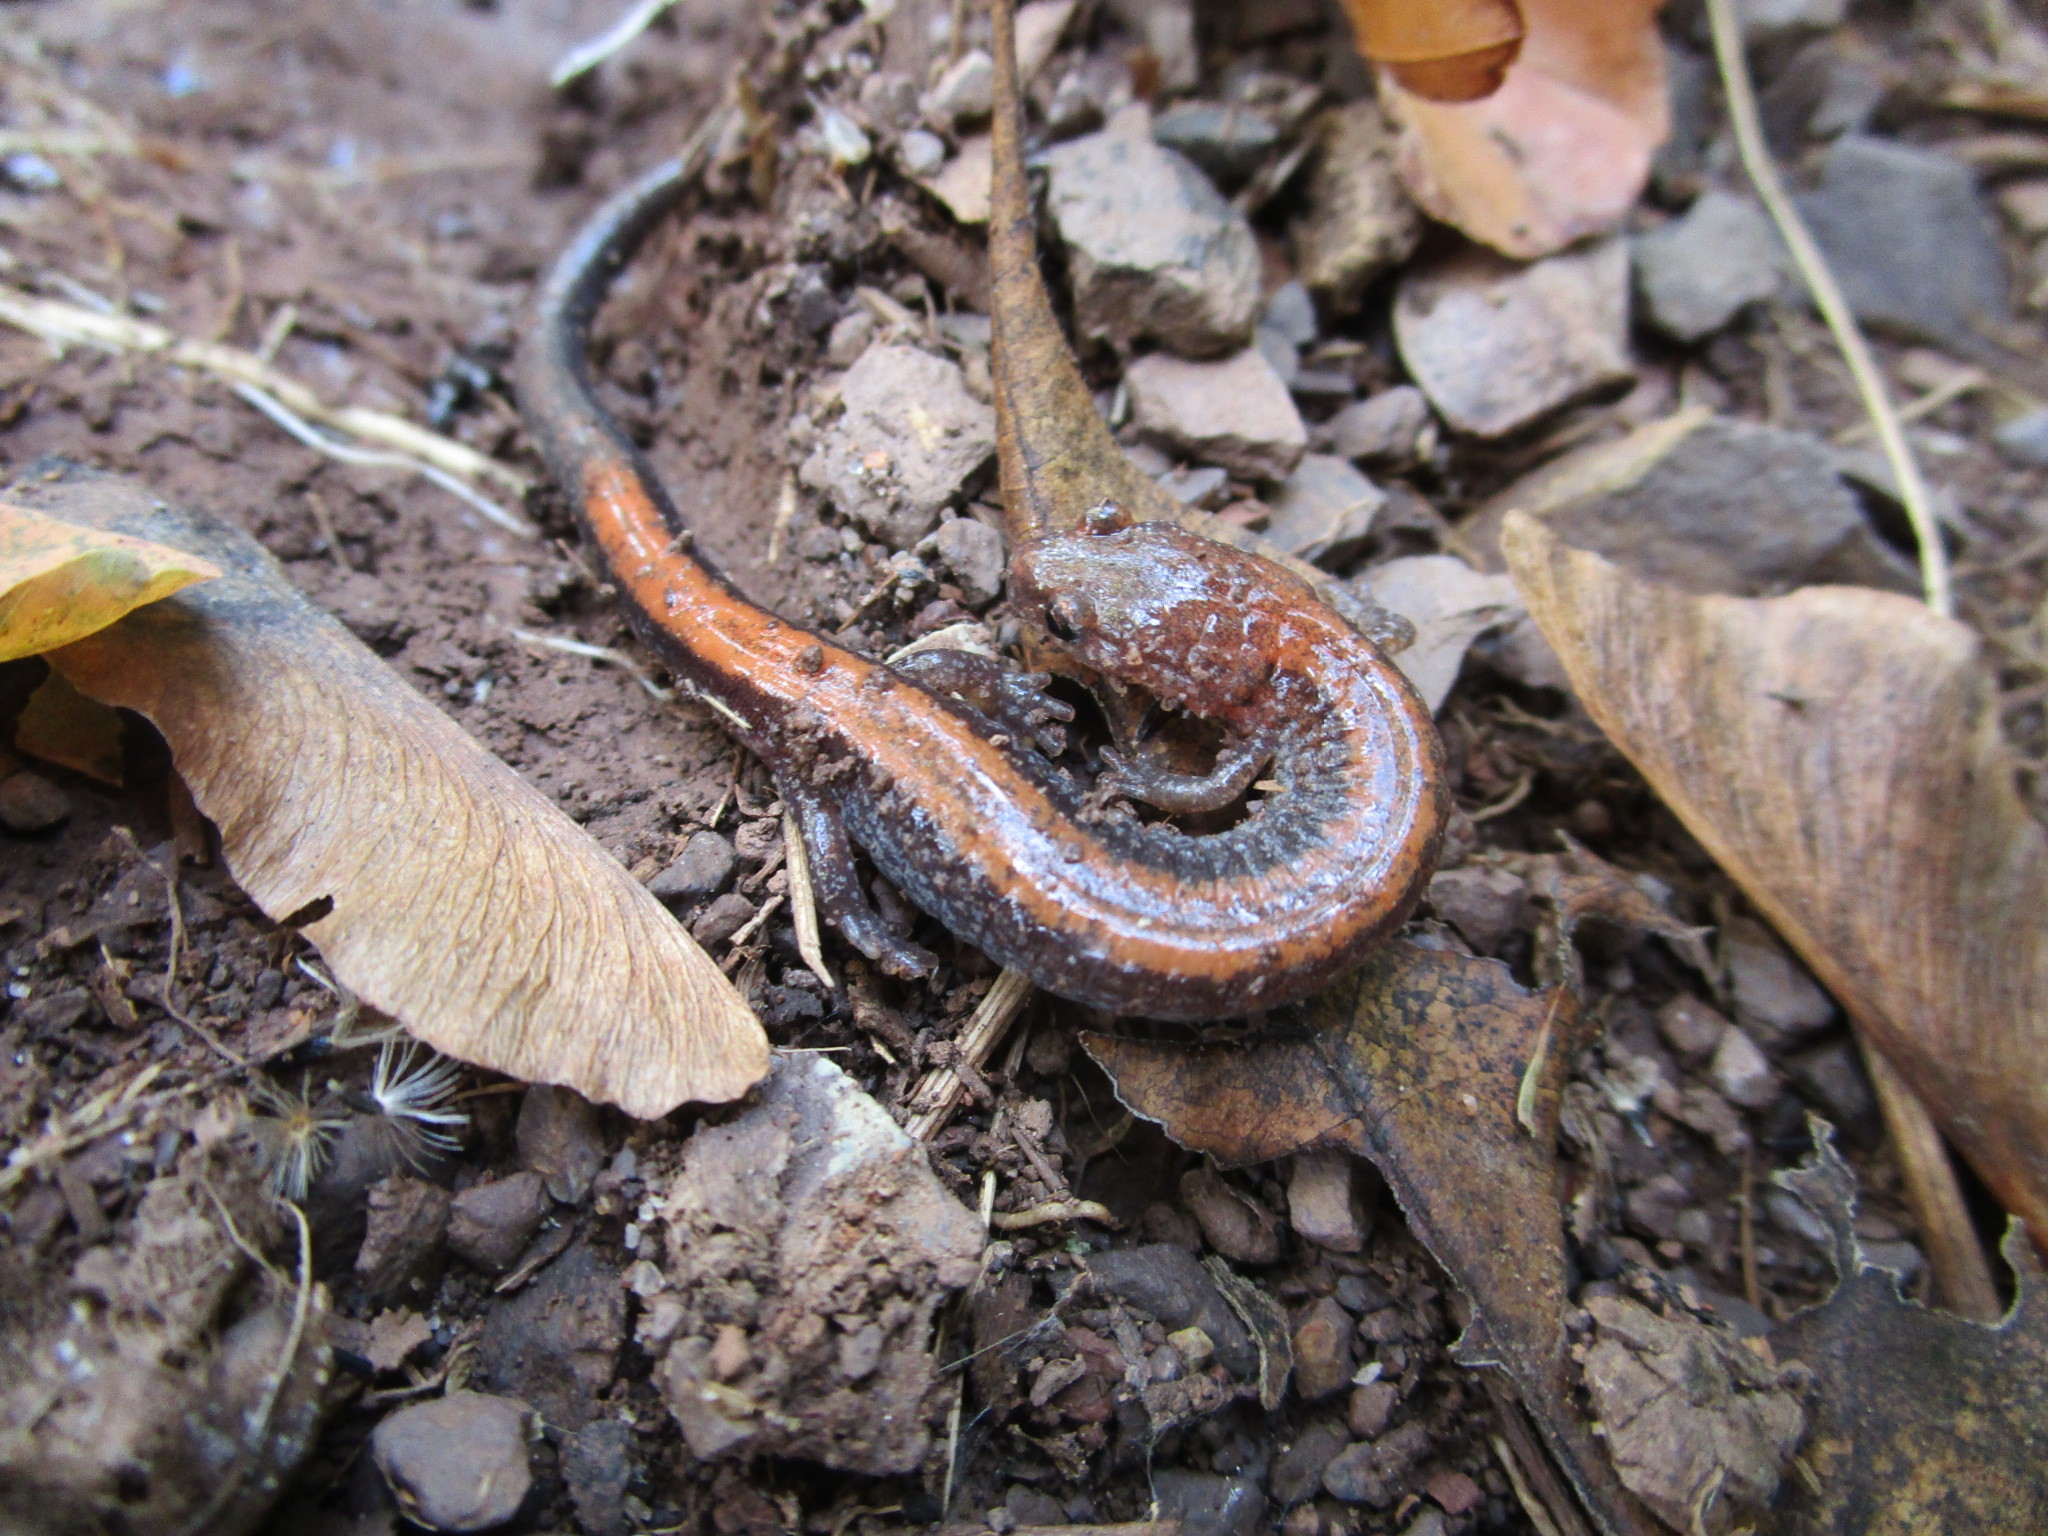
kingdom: Animalia
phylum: Chordata
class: Amphibia
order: Caudata
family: Plethodontidae
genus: Plethodon
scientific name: Plethodon cinereus
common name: Redback salamander
